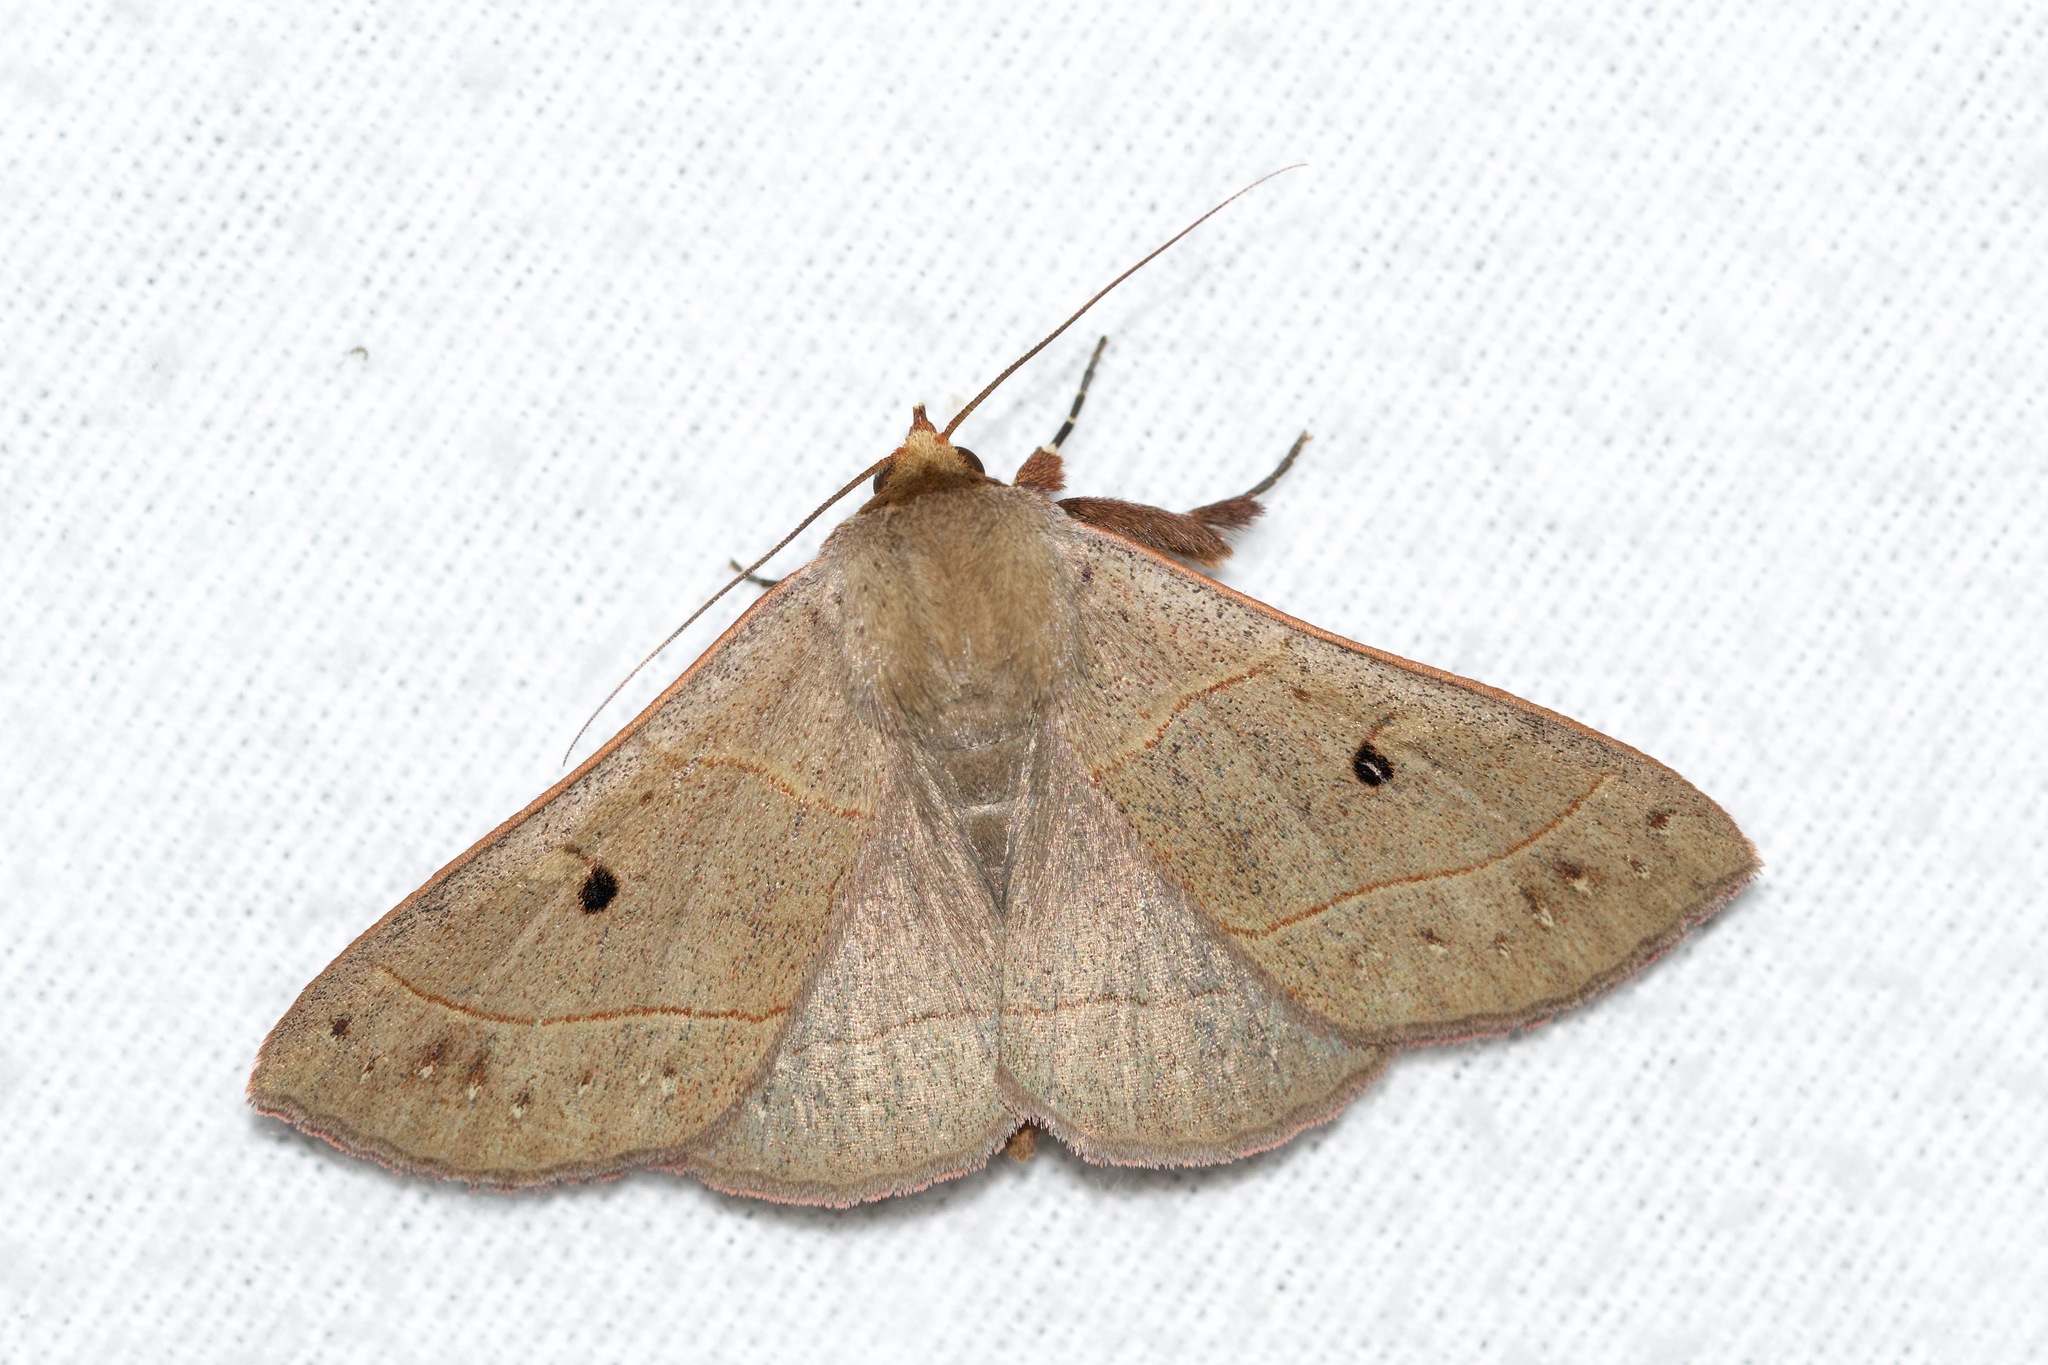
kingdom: Animalia
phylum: Arthropoda
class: Insecta
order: Lepidoptera
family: Erebidae
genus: Panopoda
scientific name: Panopoda rufimargo
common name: Red-lined panopoda moth
